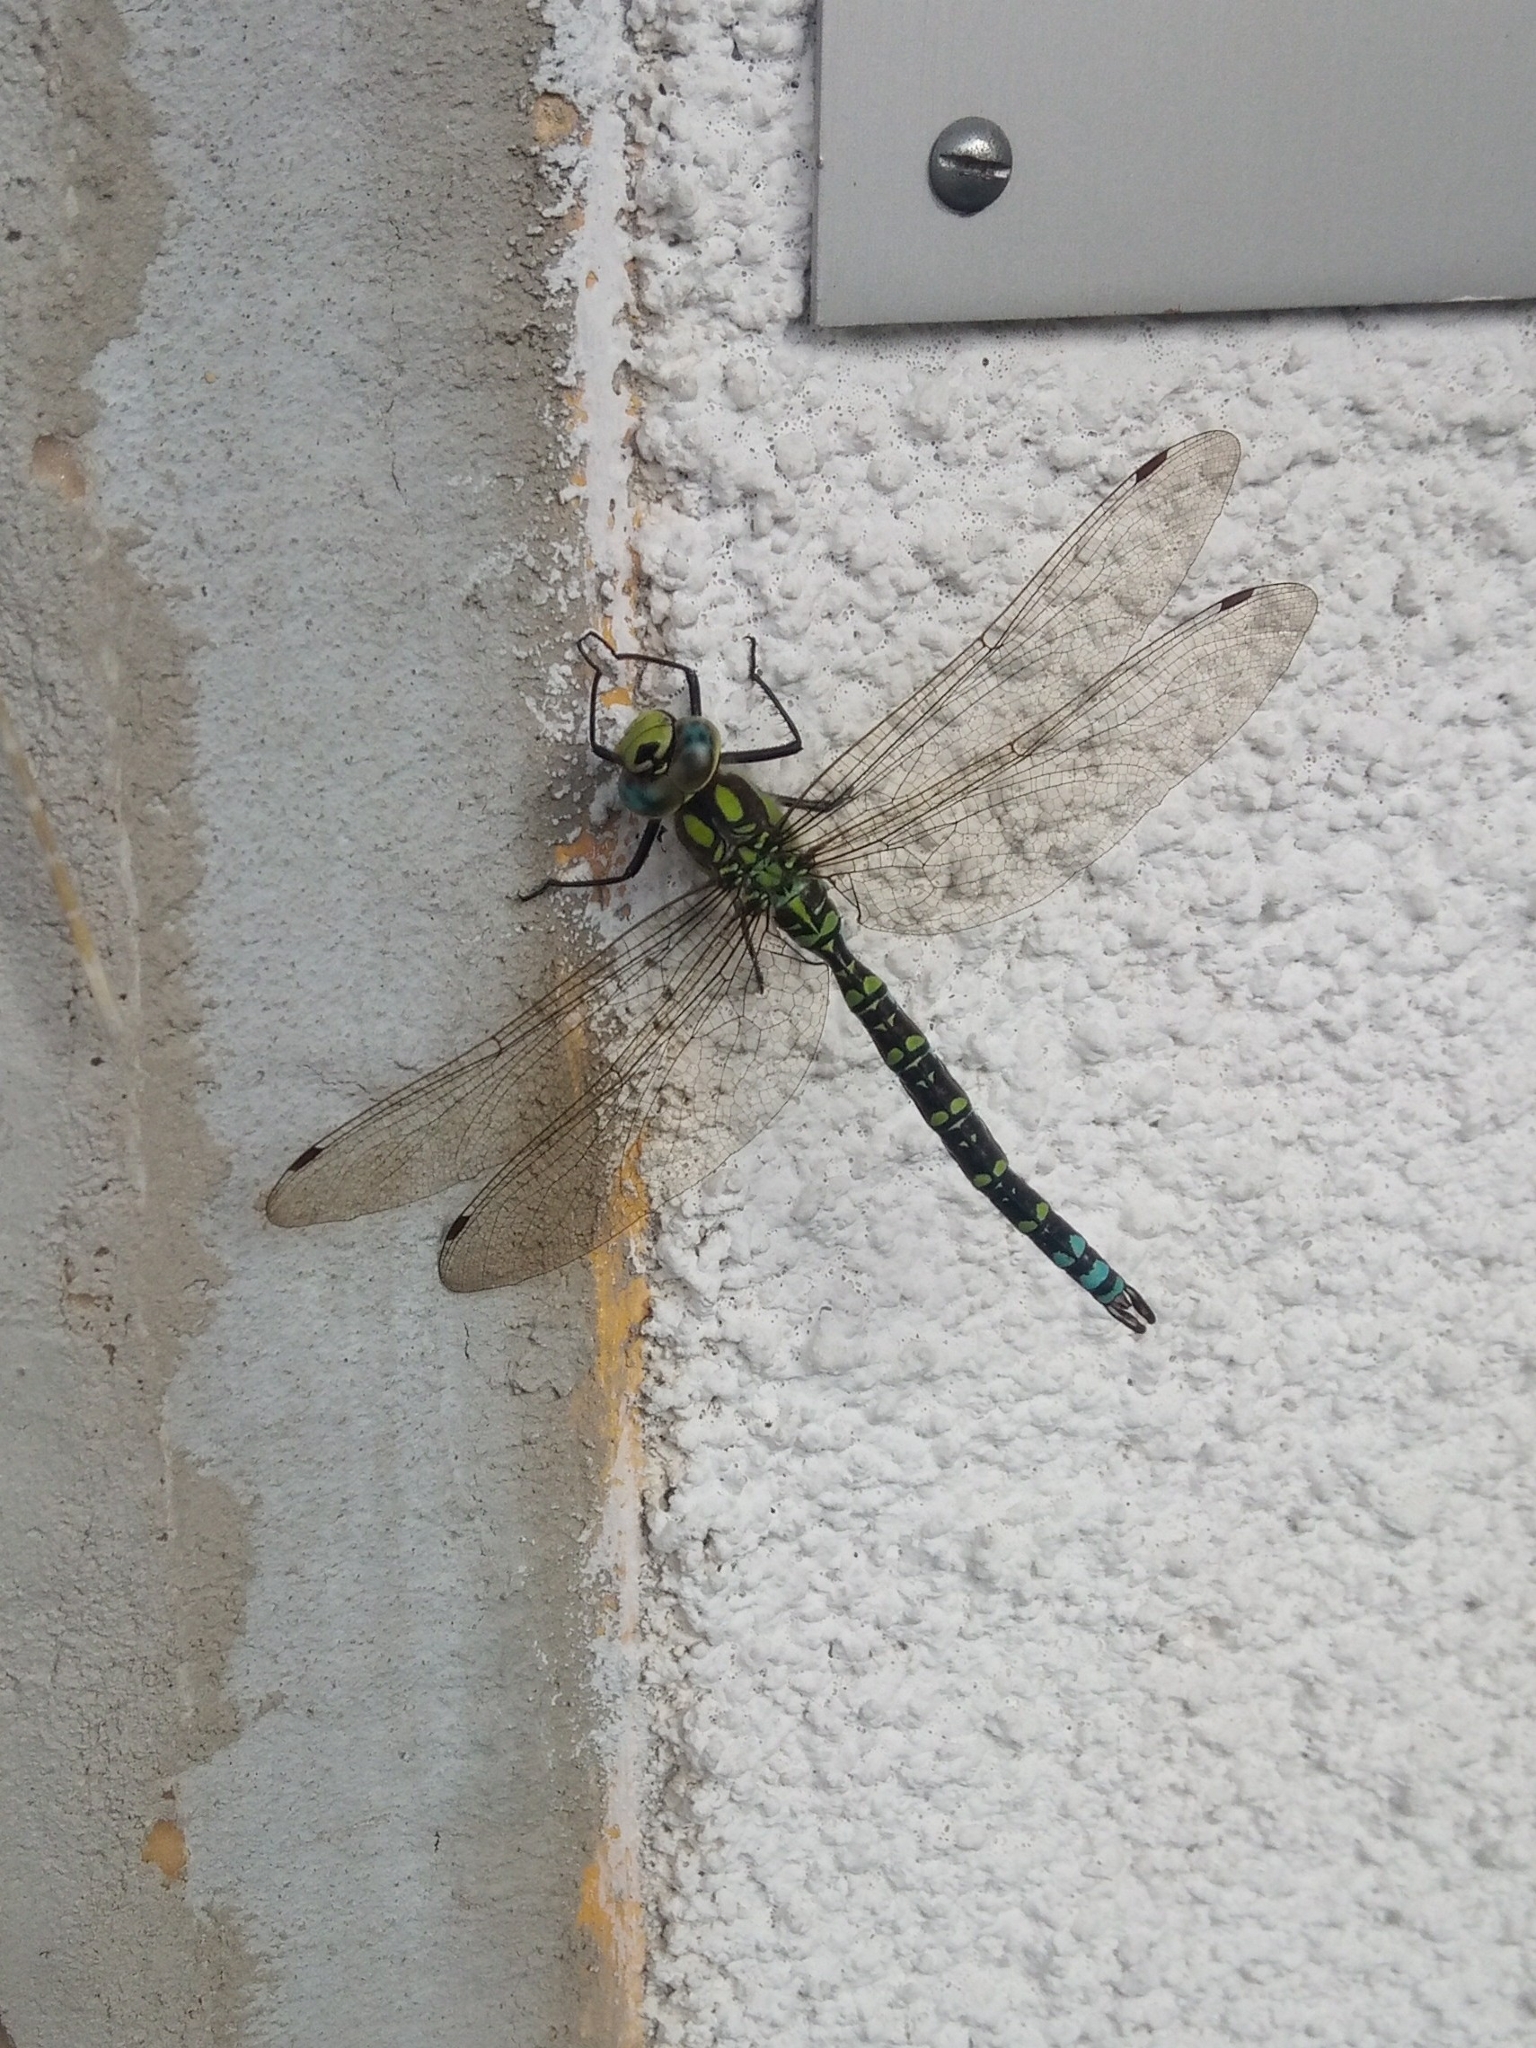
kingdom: Animalia
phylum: Arthropoda
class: Insecta
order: Odonata
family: Aeshnidae
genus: Aeshna
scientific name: Aeshna cyanea
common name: Southern hawker
